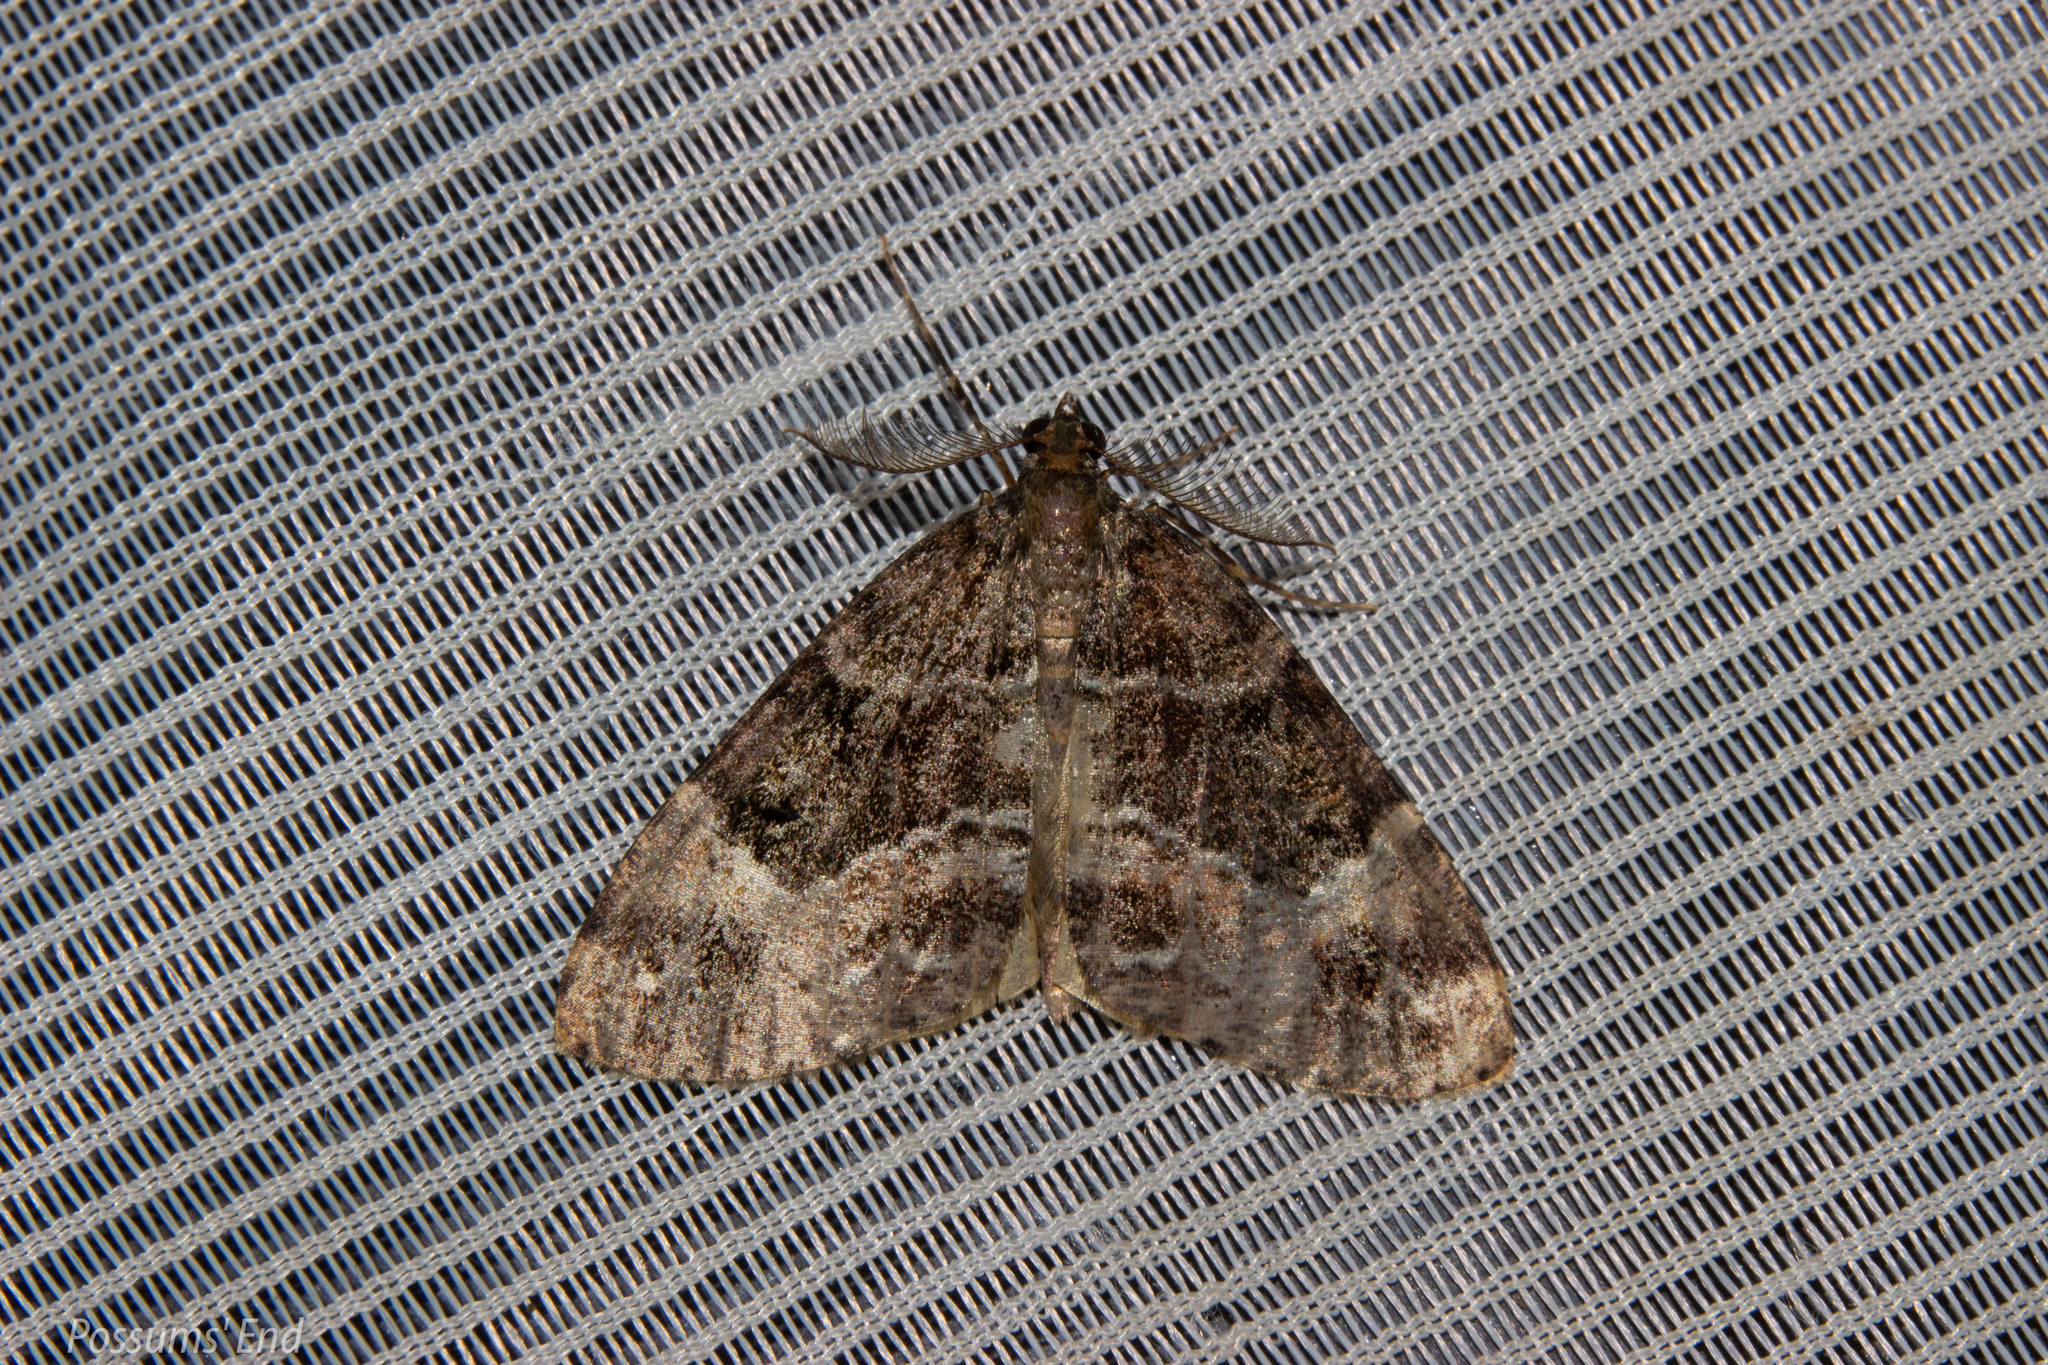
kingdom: Animalia
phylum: Arthropoda
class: Insecta
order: Lepidoptera
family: Geometridae
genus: Pseudocoremia
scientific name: Pseudocoremia productata
